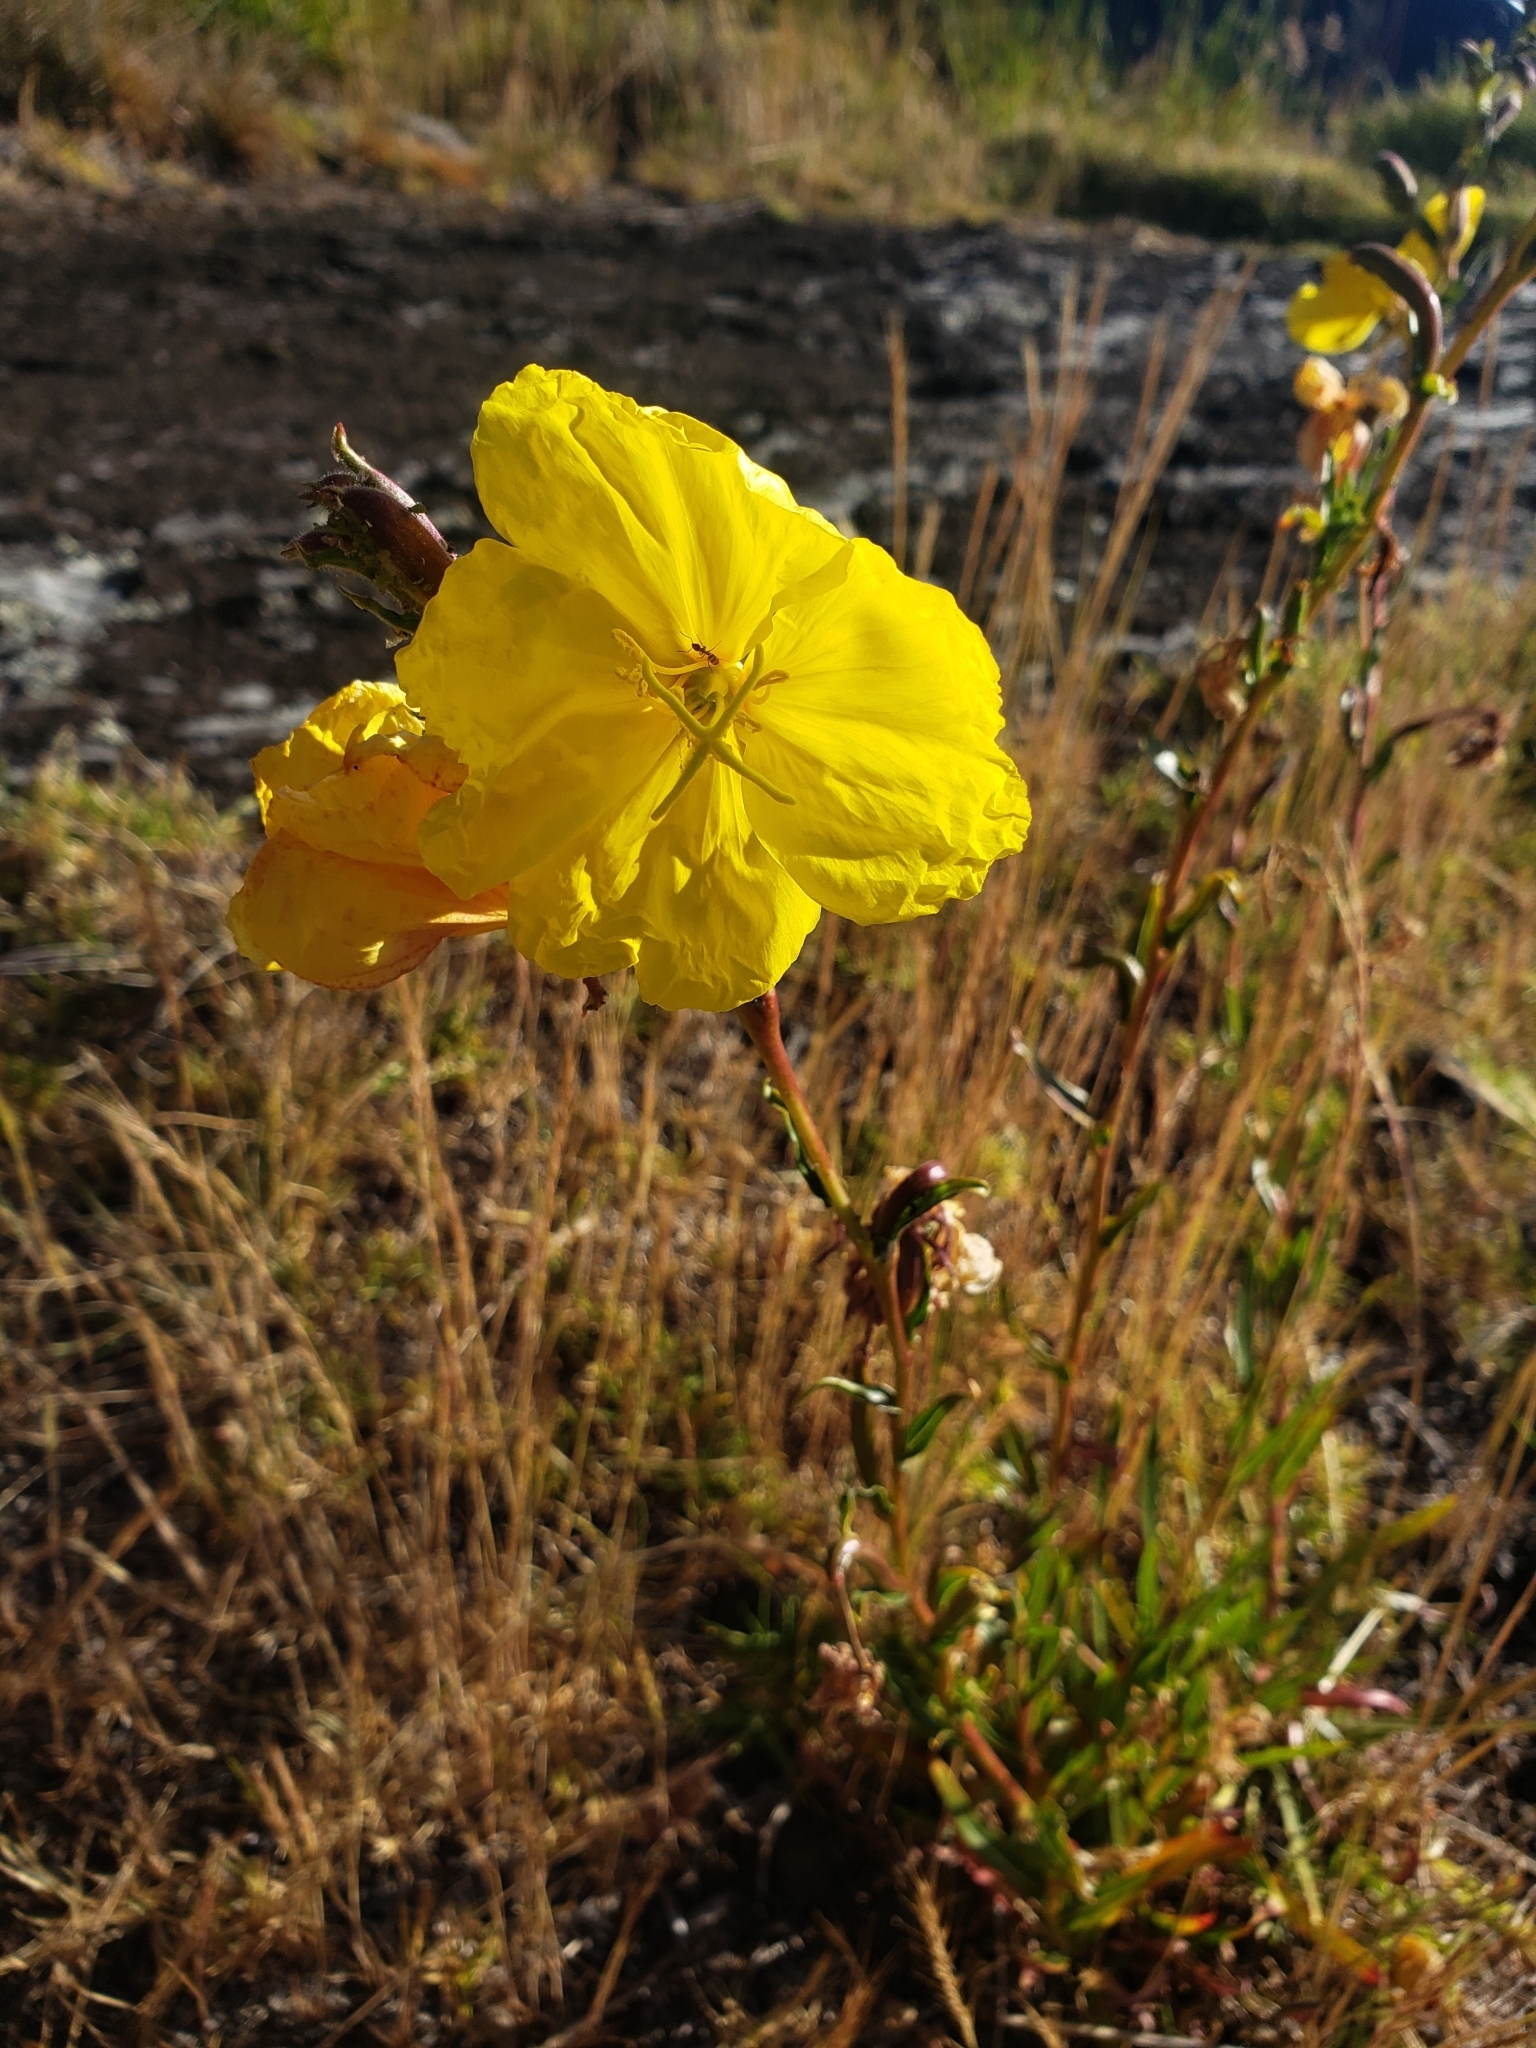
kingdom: Plantae
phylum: Tracheophyta
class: Magnoliopsida
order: Myrtales
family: Onagraceae
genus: Oenothera
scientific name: Oenothera stricta
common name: Fragrant evening-primrose
